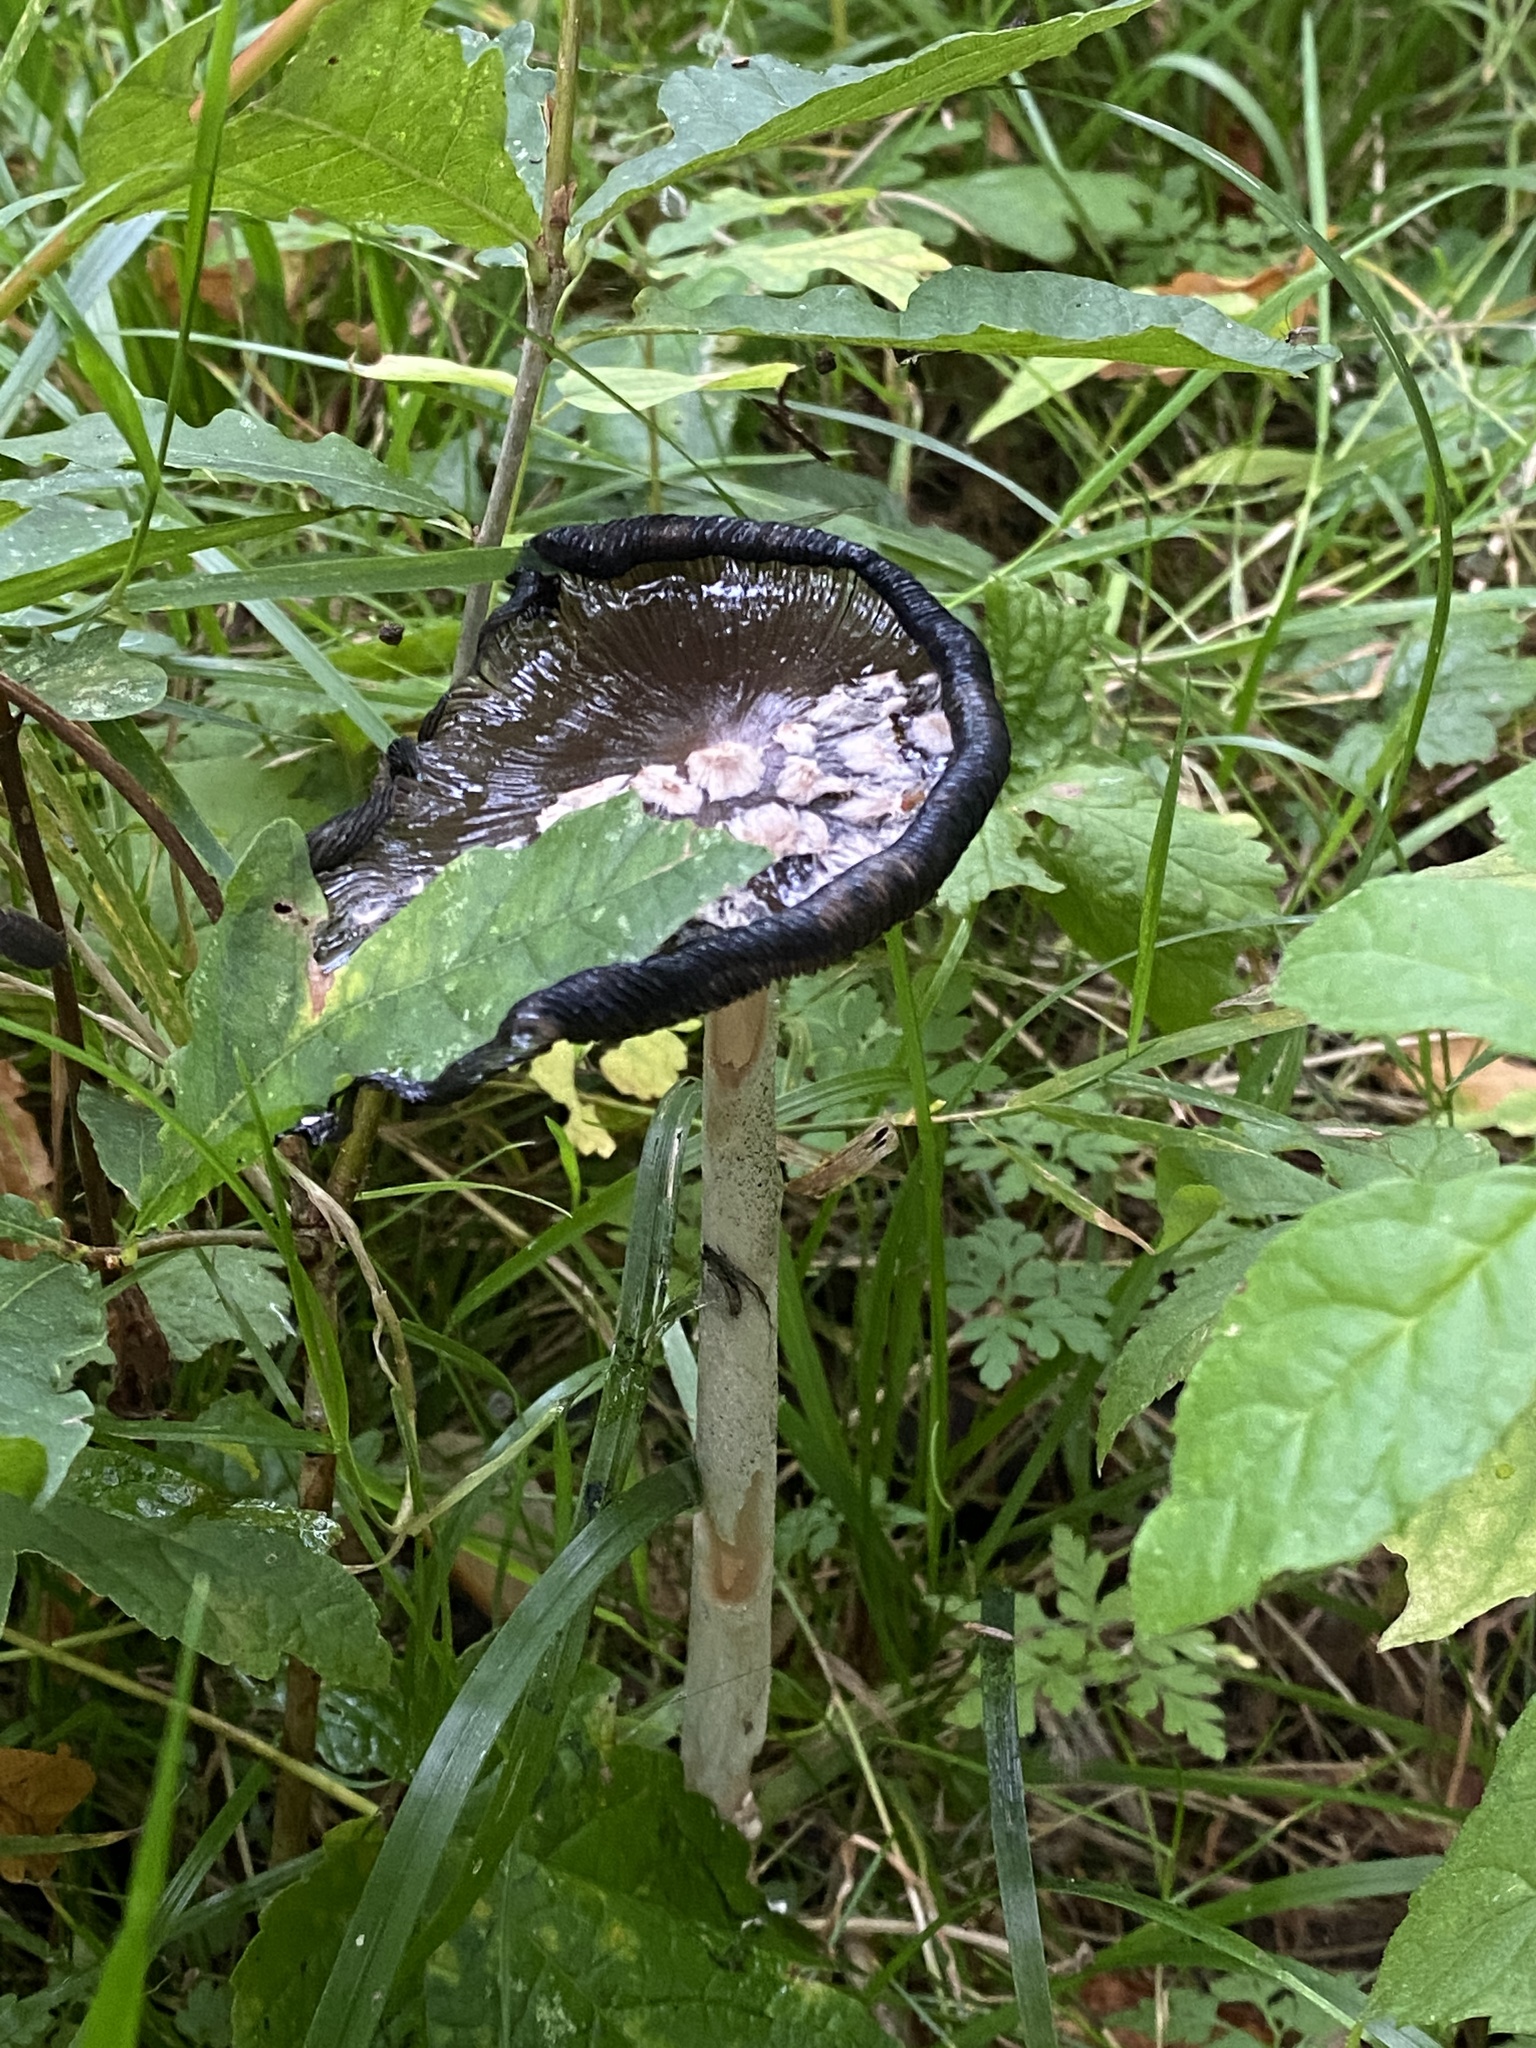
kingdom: Fungi
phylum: Basidiomycota
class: Agaricomycetes
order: Agaricales
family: Psathyrellaceae
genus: Coprinopsis
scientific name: Coprinopsis picacea
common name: Magpie inkcap
